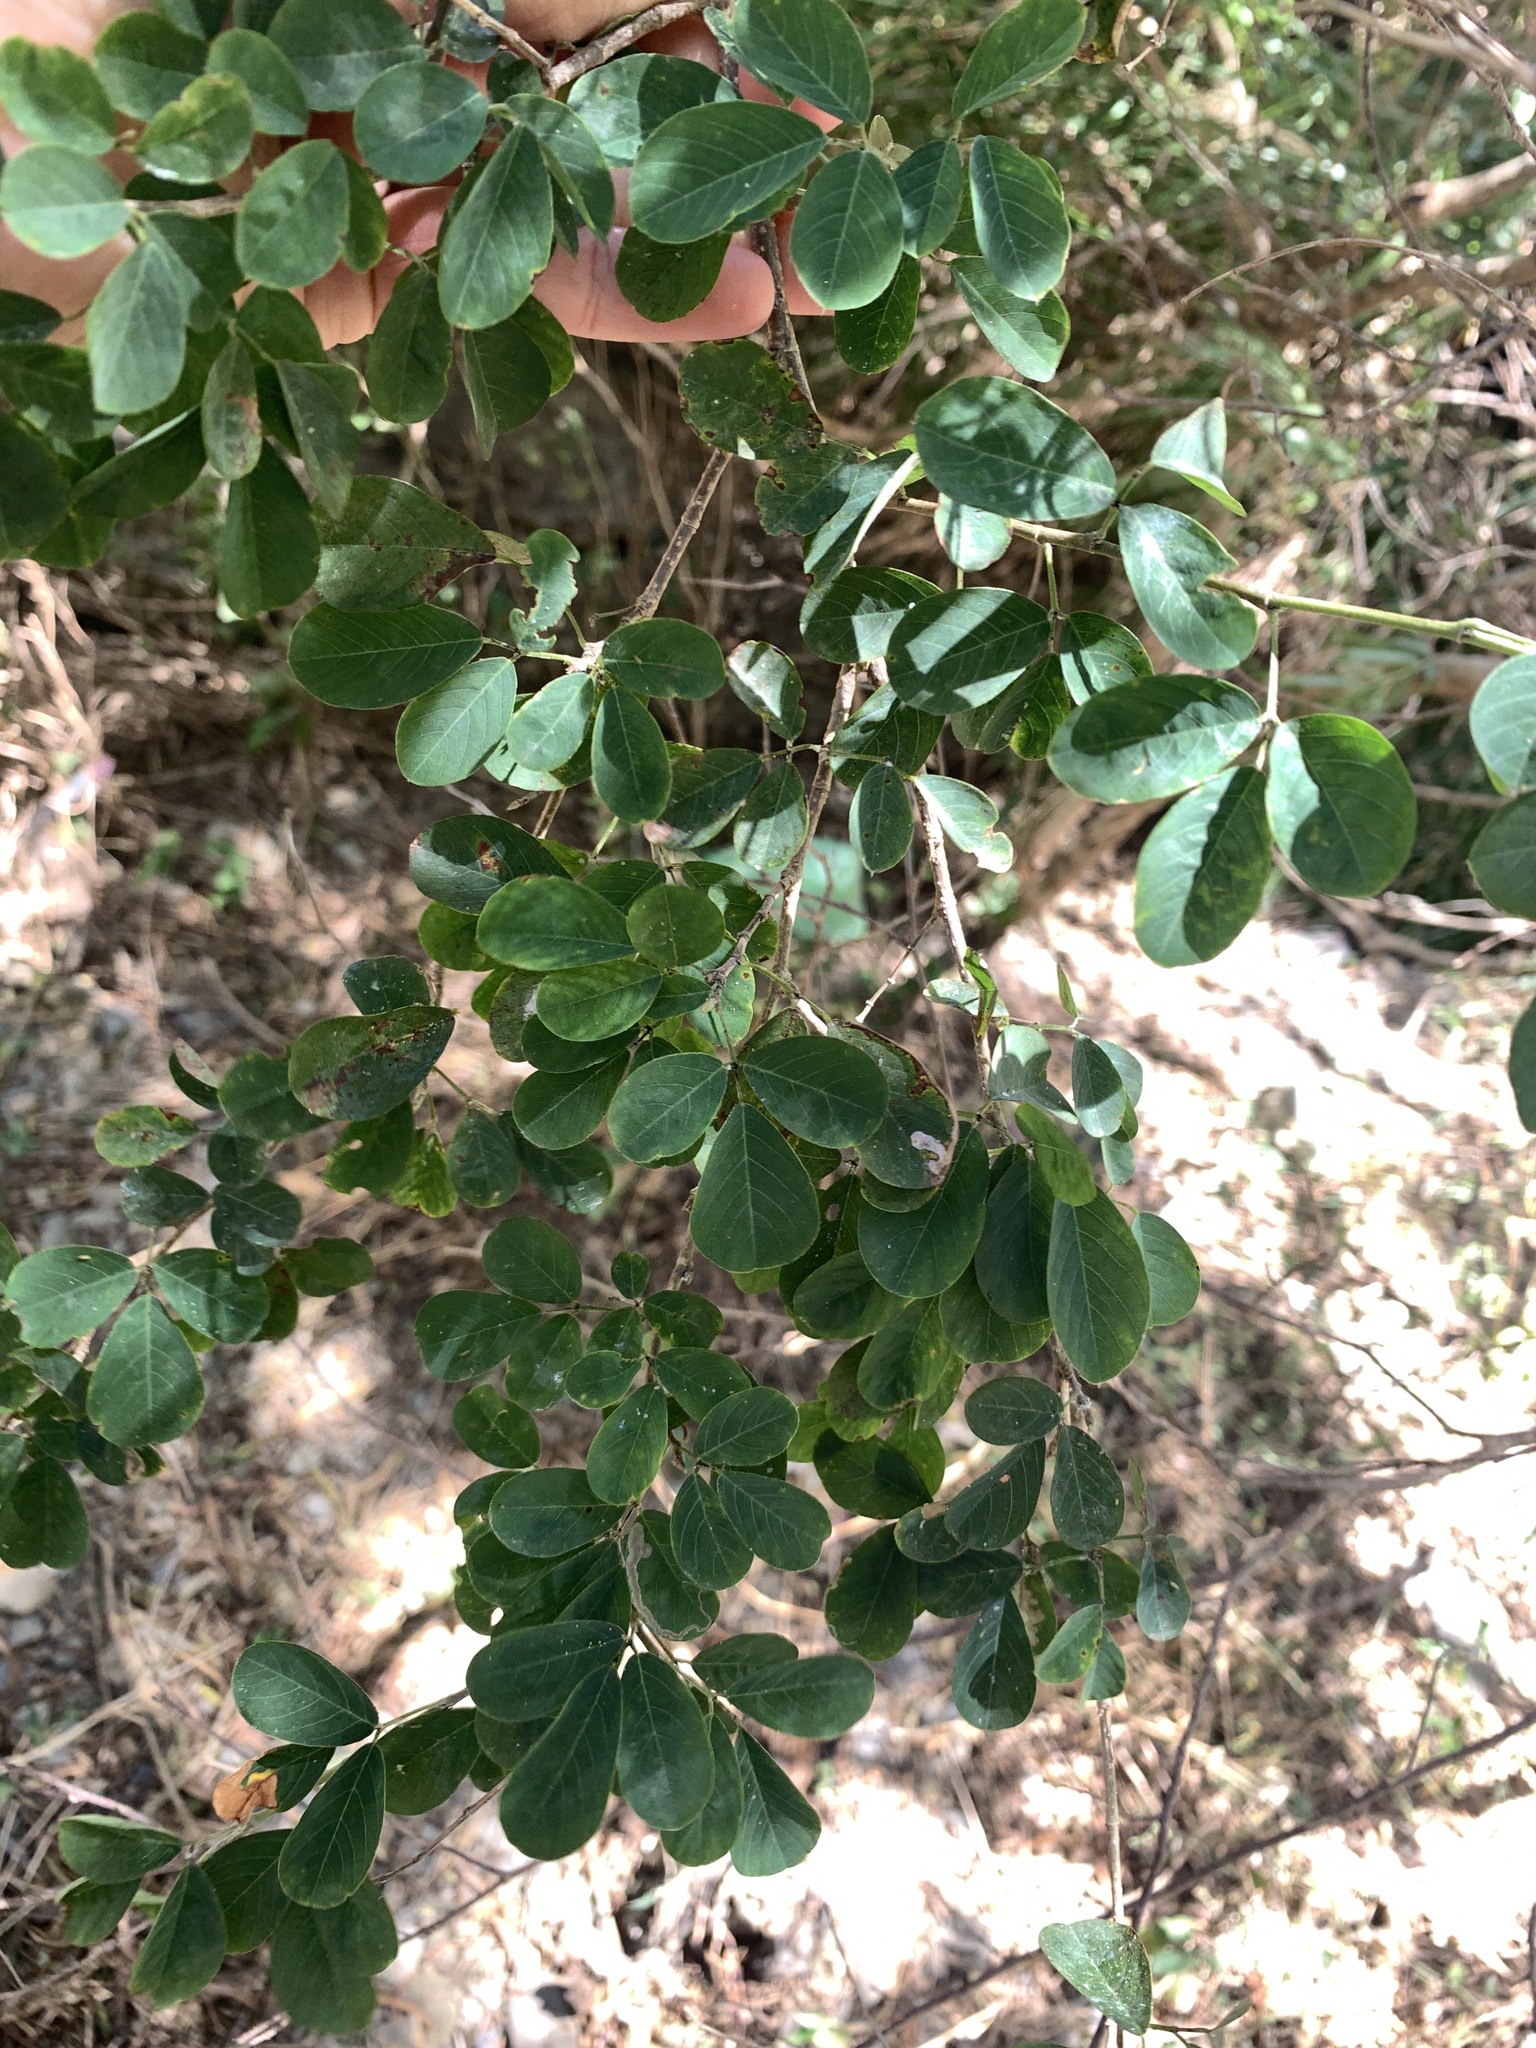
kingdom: Plantae
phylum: Tracheophyta
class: Magnoliopsida
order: Fabales
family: Fabaceae
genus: Dendrolobium
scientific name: Dendrolobium dispermum
